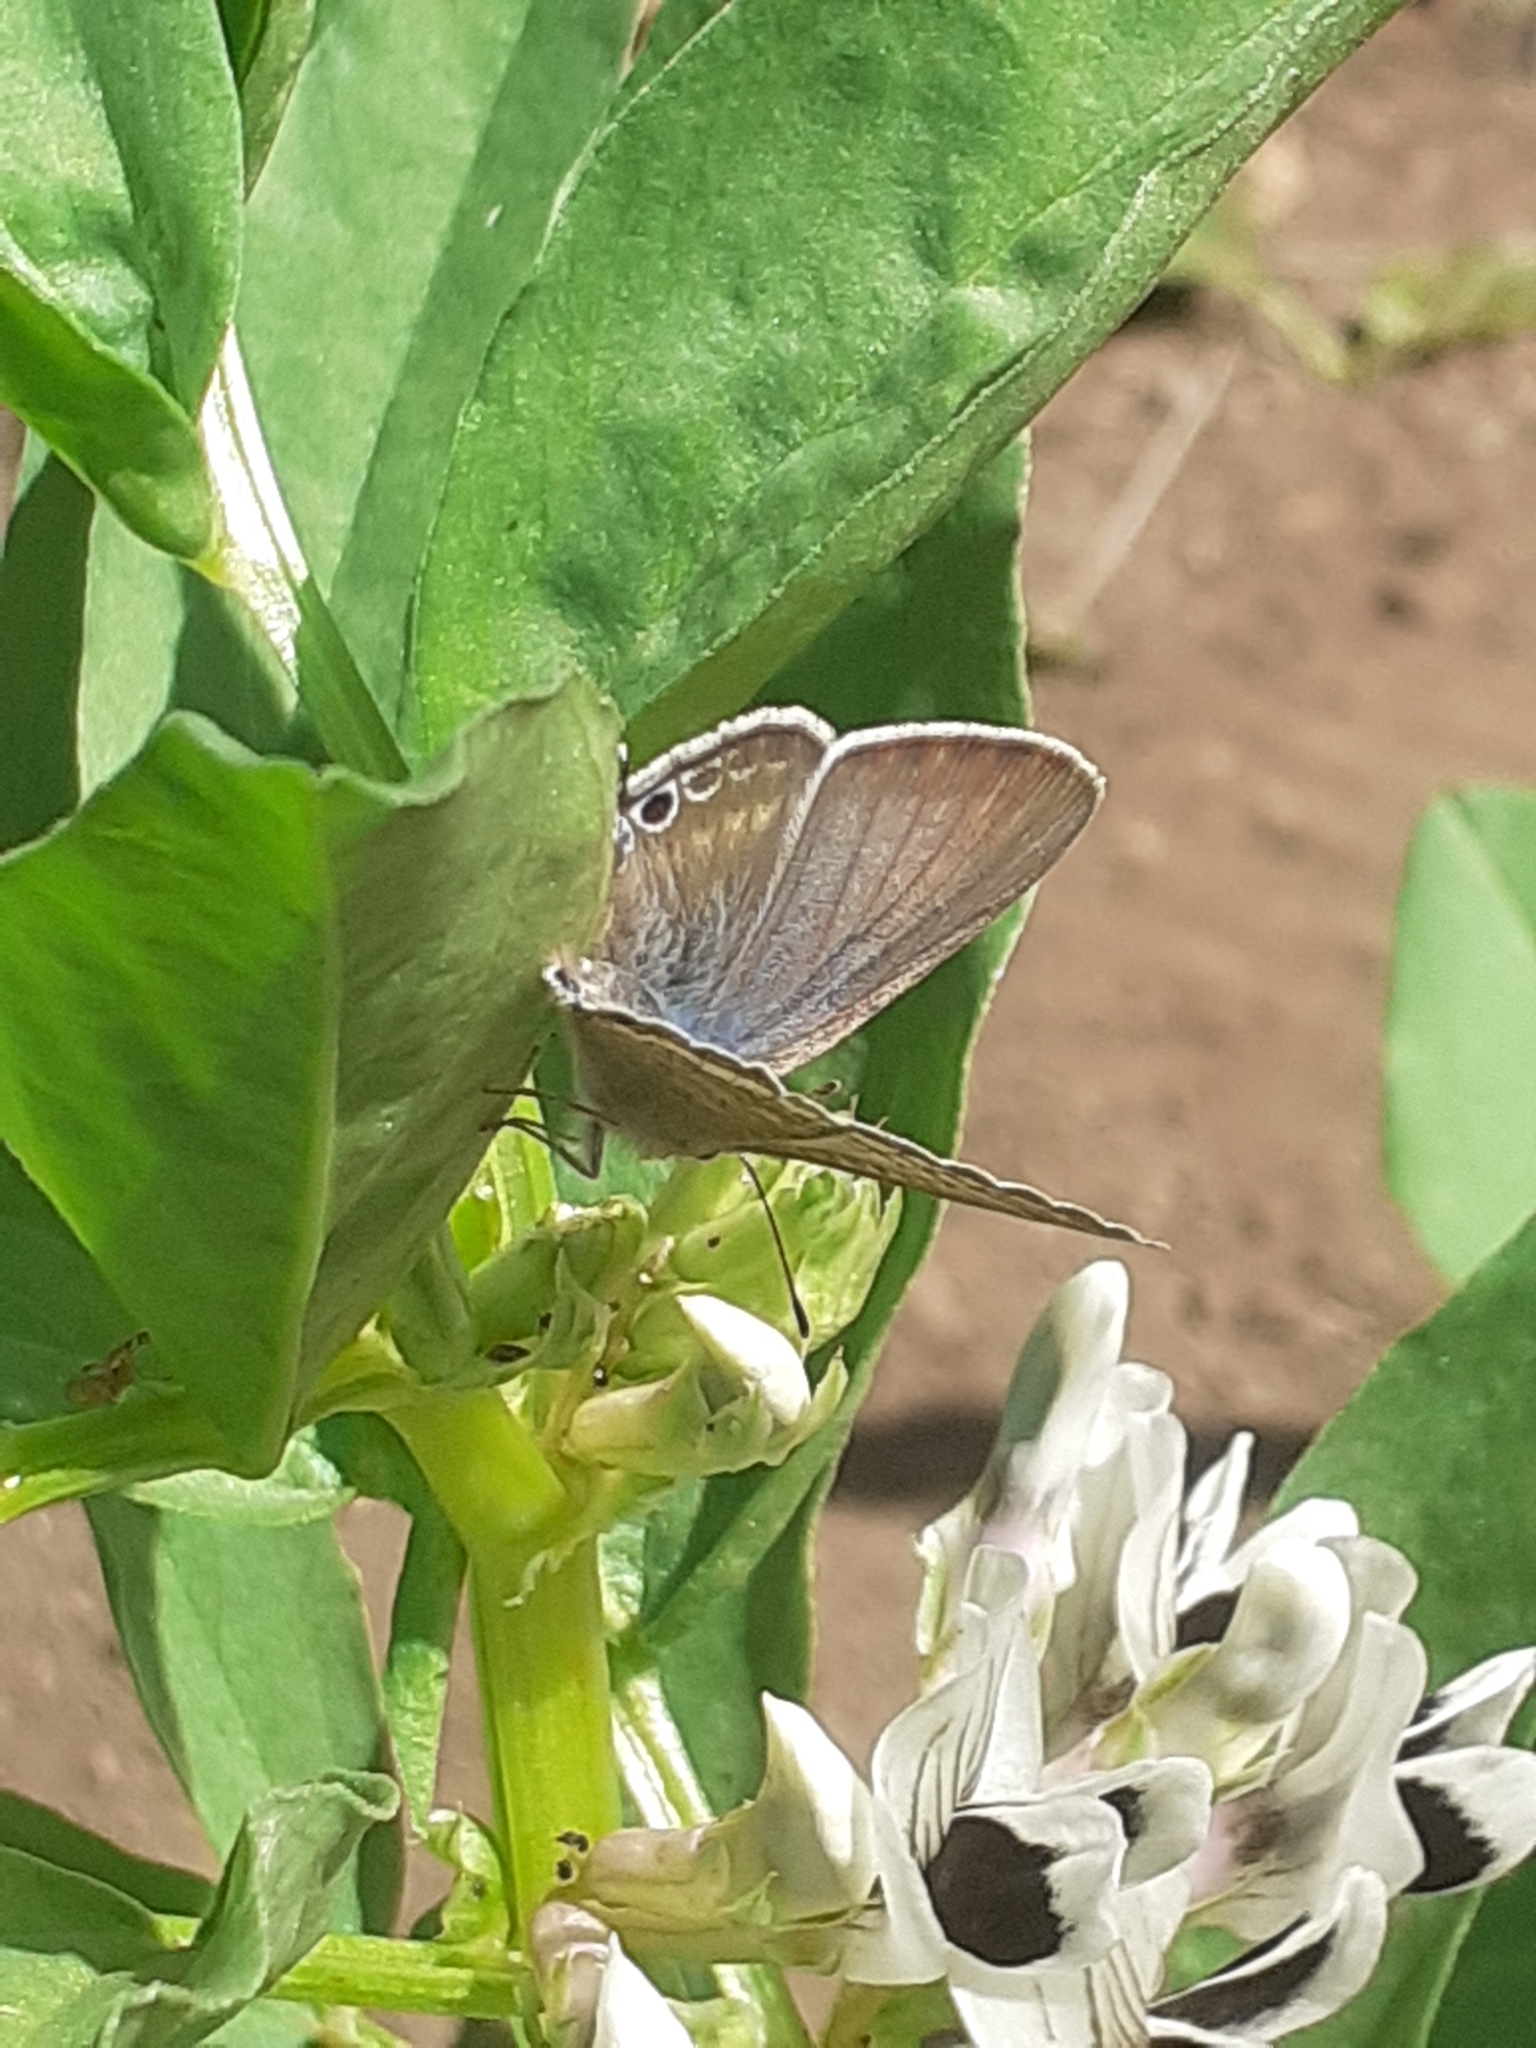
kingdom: Animalia
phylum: Arthropoda
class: Insecta
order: Lepidoptera
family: Lycaenidae
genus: Lampides
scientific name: Lampides boeticus
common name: Long-tailed blue
